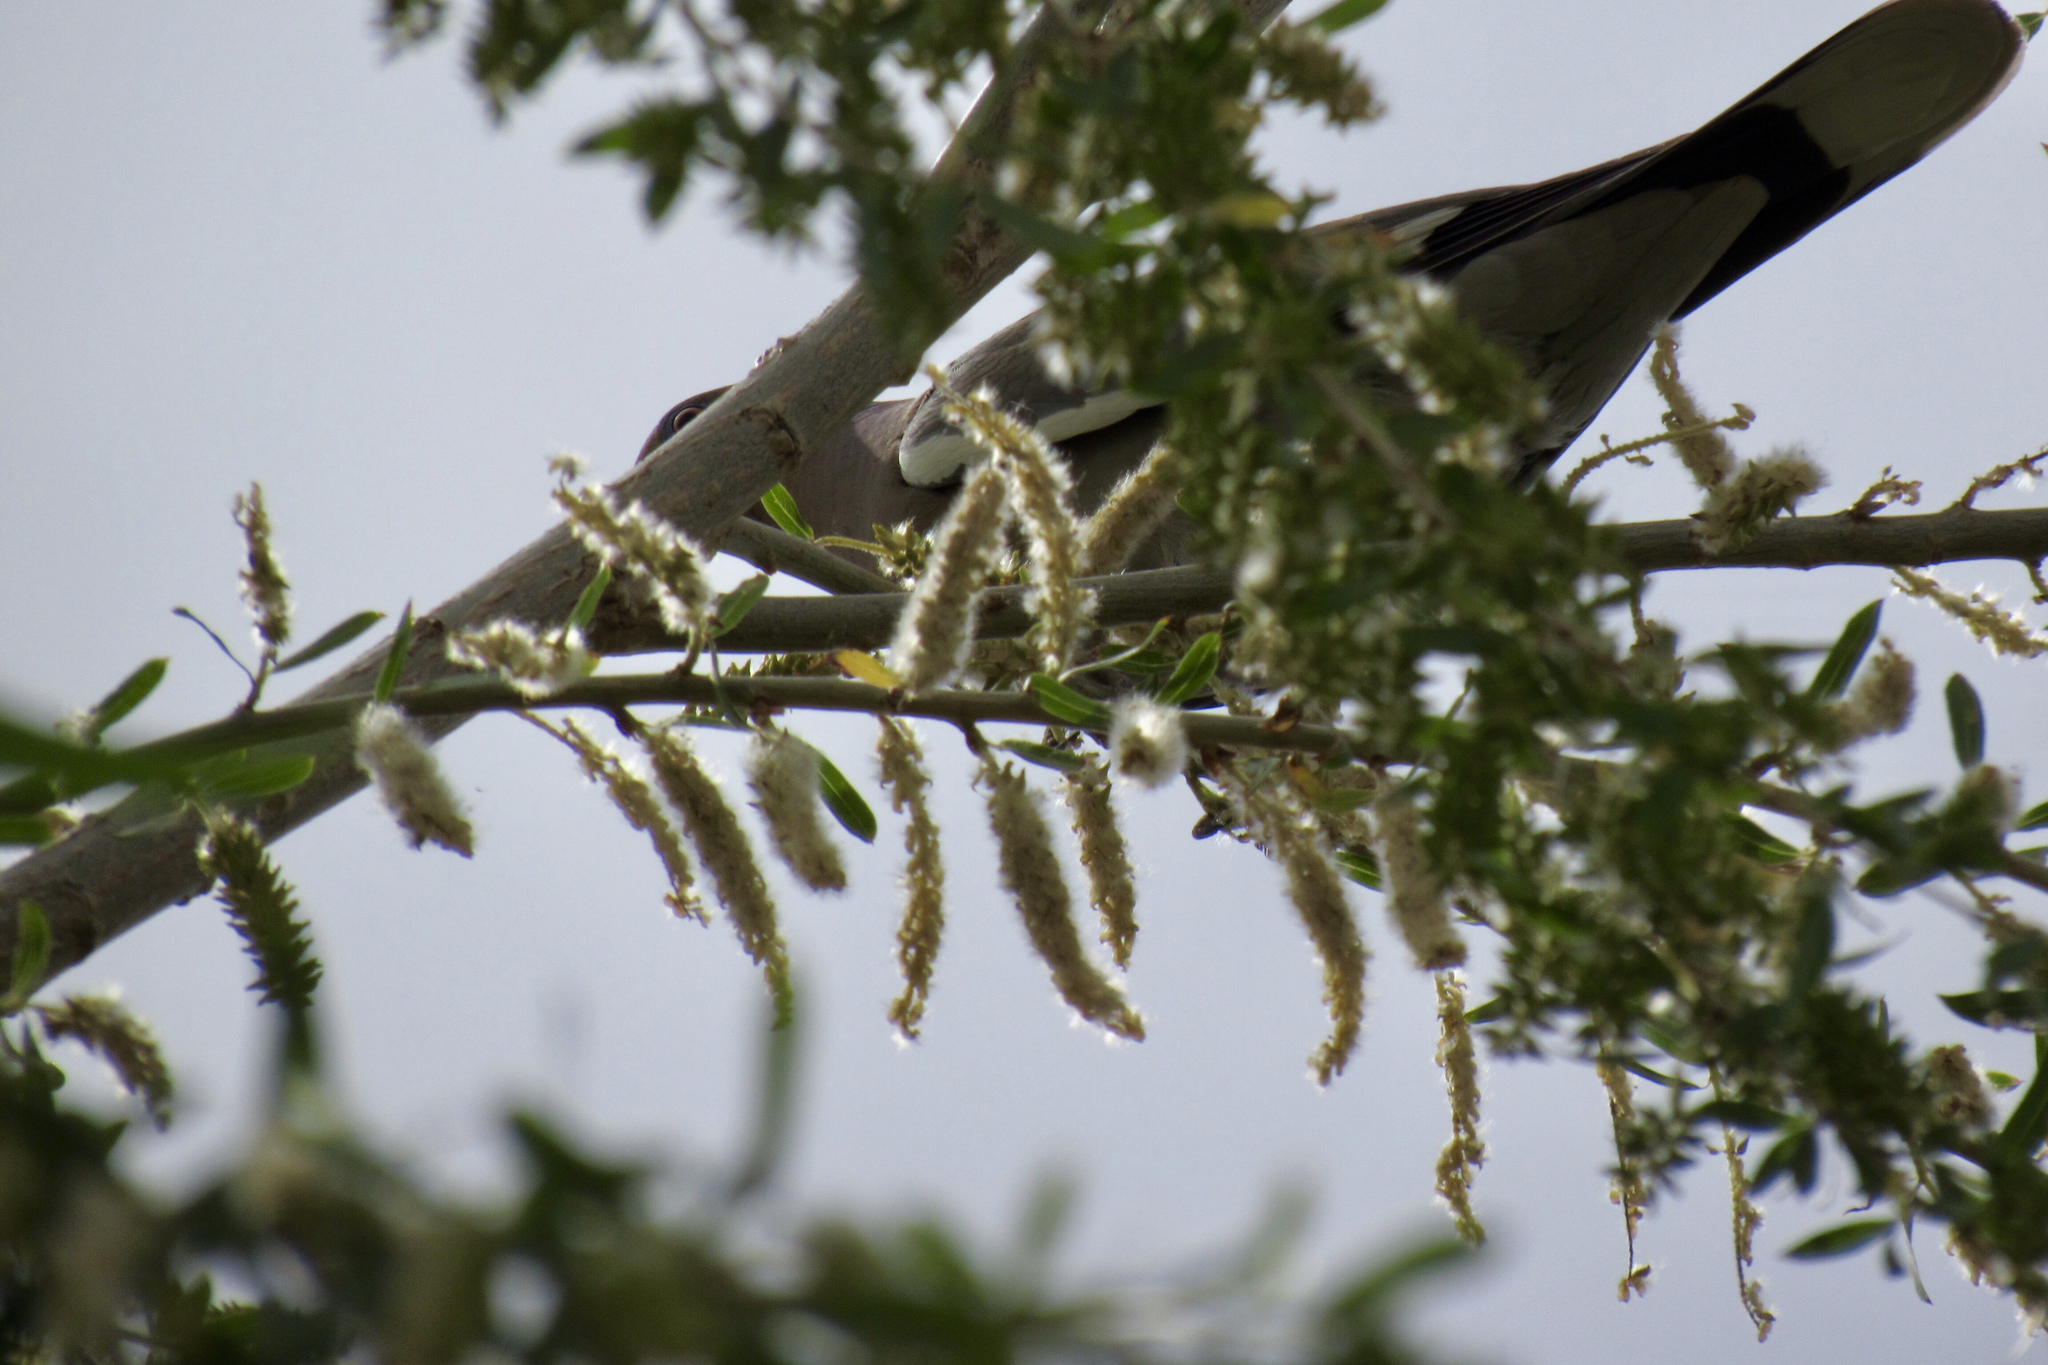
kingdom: Animalia
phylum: Chordata
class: Aves
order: Columbiformes
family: Columbidae
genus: Zenaida
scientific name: Zenaida asiatica
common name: White-winged dove
